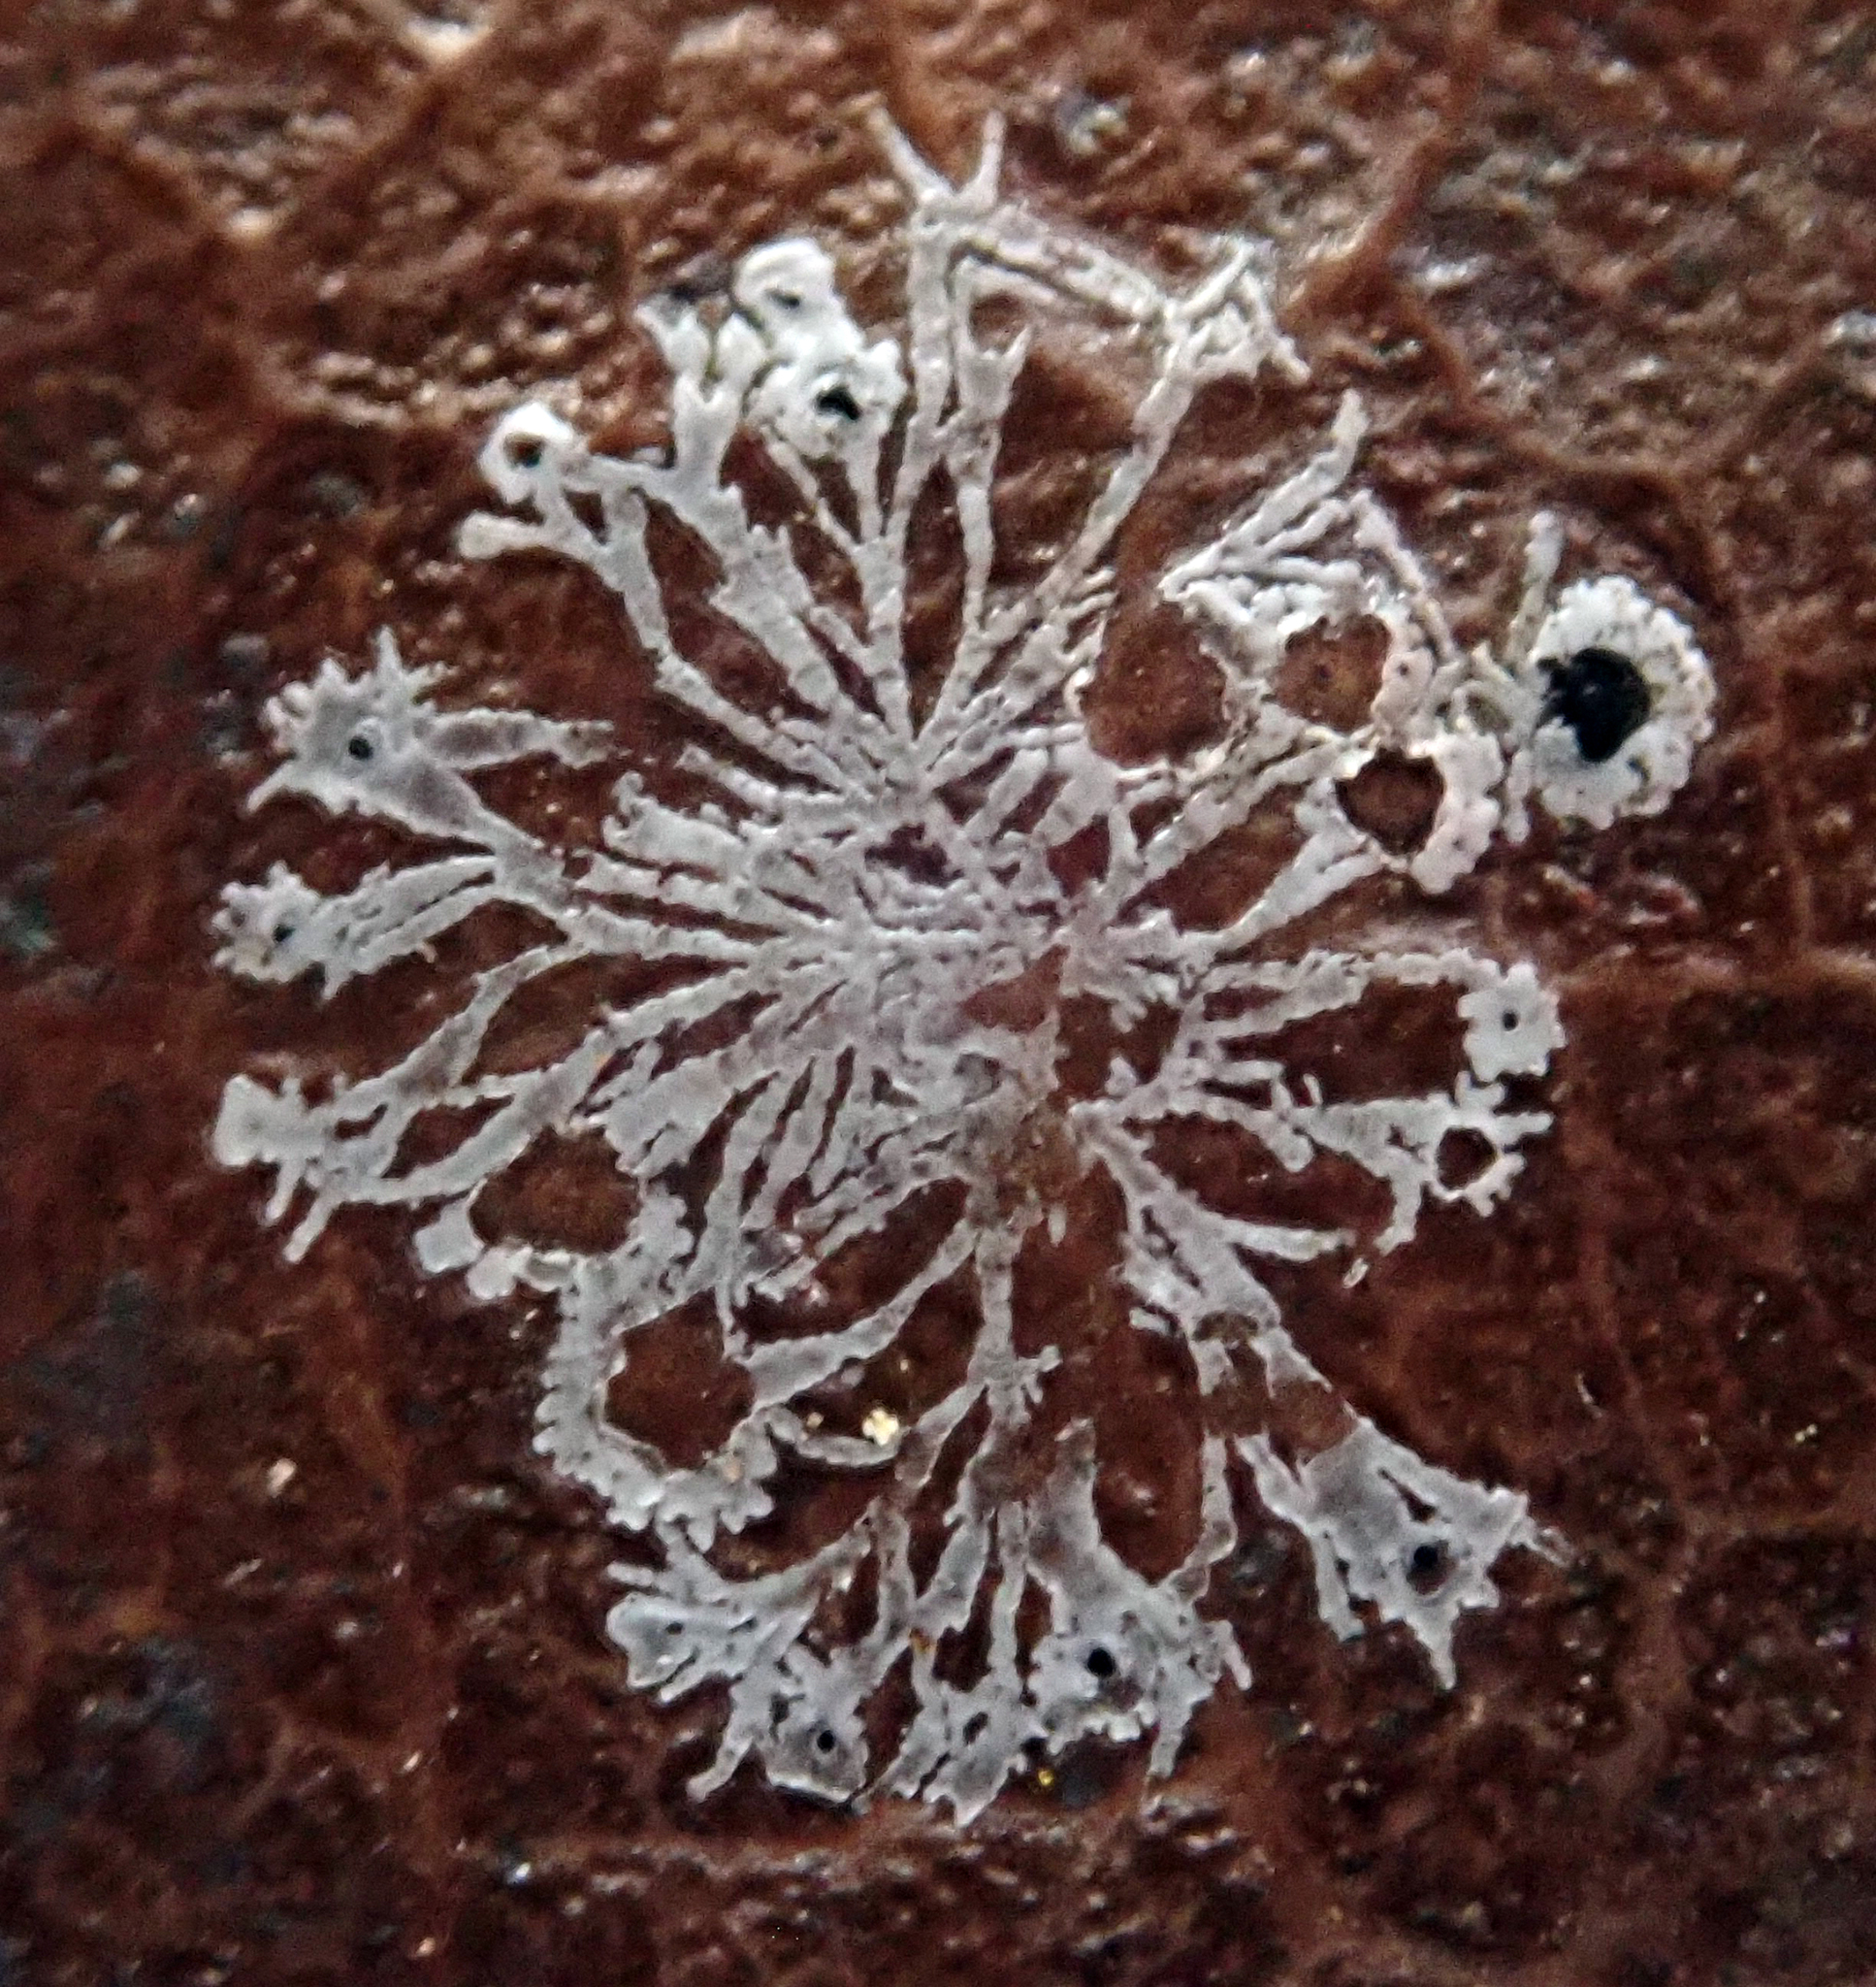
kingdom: Fungi
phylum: Ascomycota
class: Dothideomycetes
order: Strigulales
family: Strigulaceae
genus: Strigula
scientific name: Strigula
